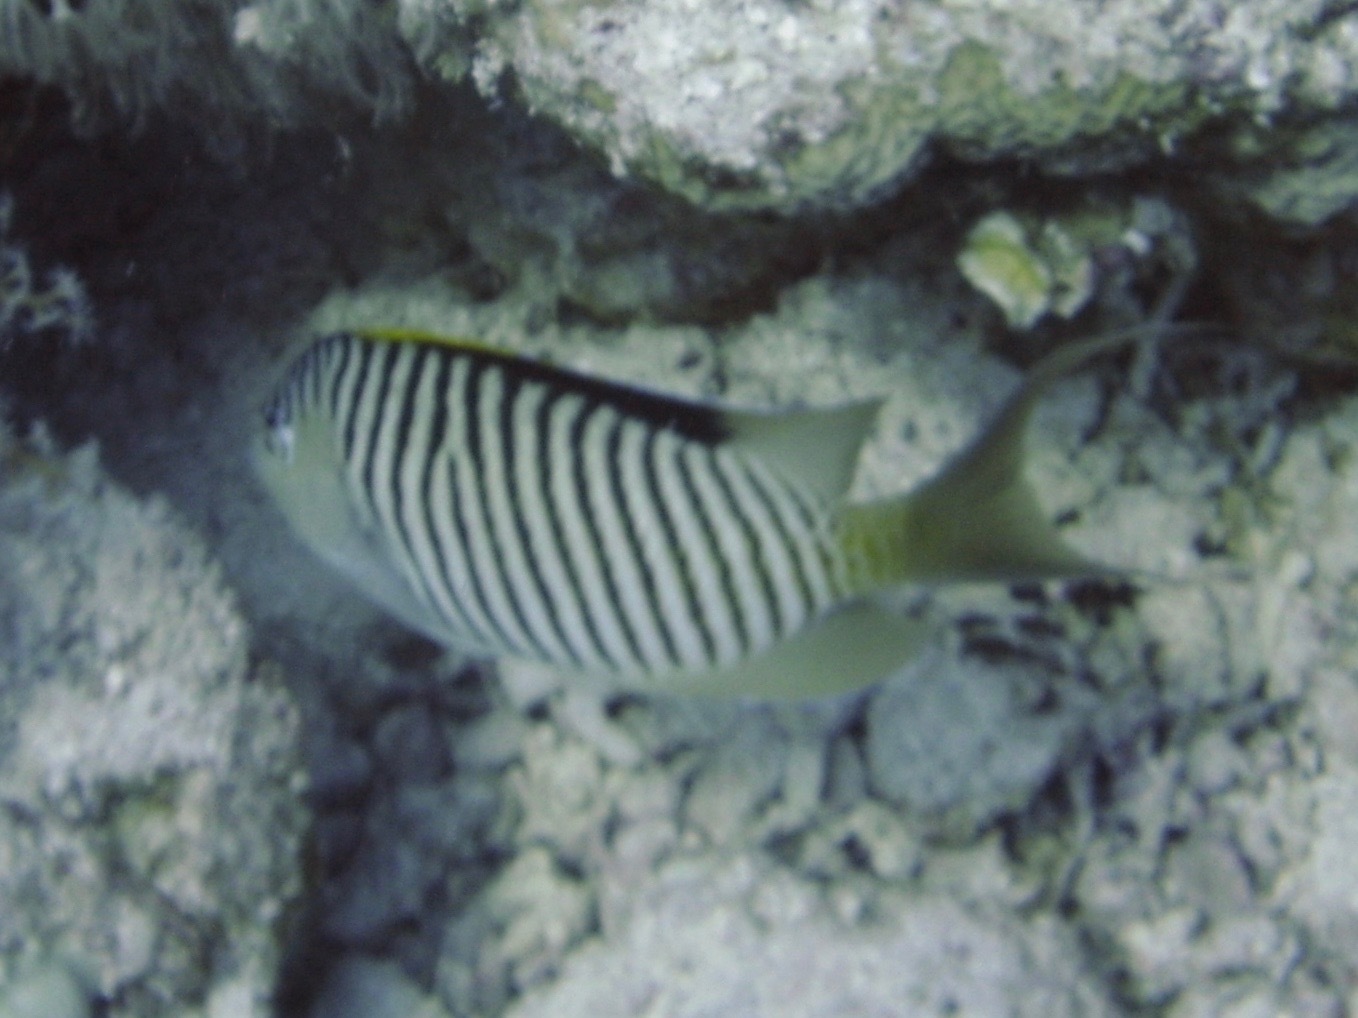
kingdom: Animalia
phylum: Chordata
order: Perciformes
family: Pomacanthidae
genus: Genicanthus
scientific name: Genicanthus caudovittatus
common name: Lyretail angelfish
